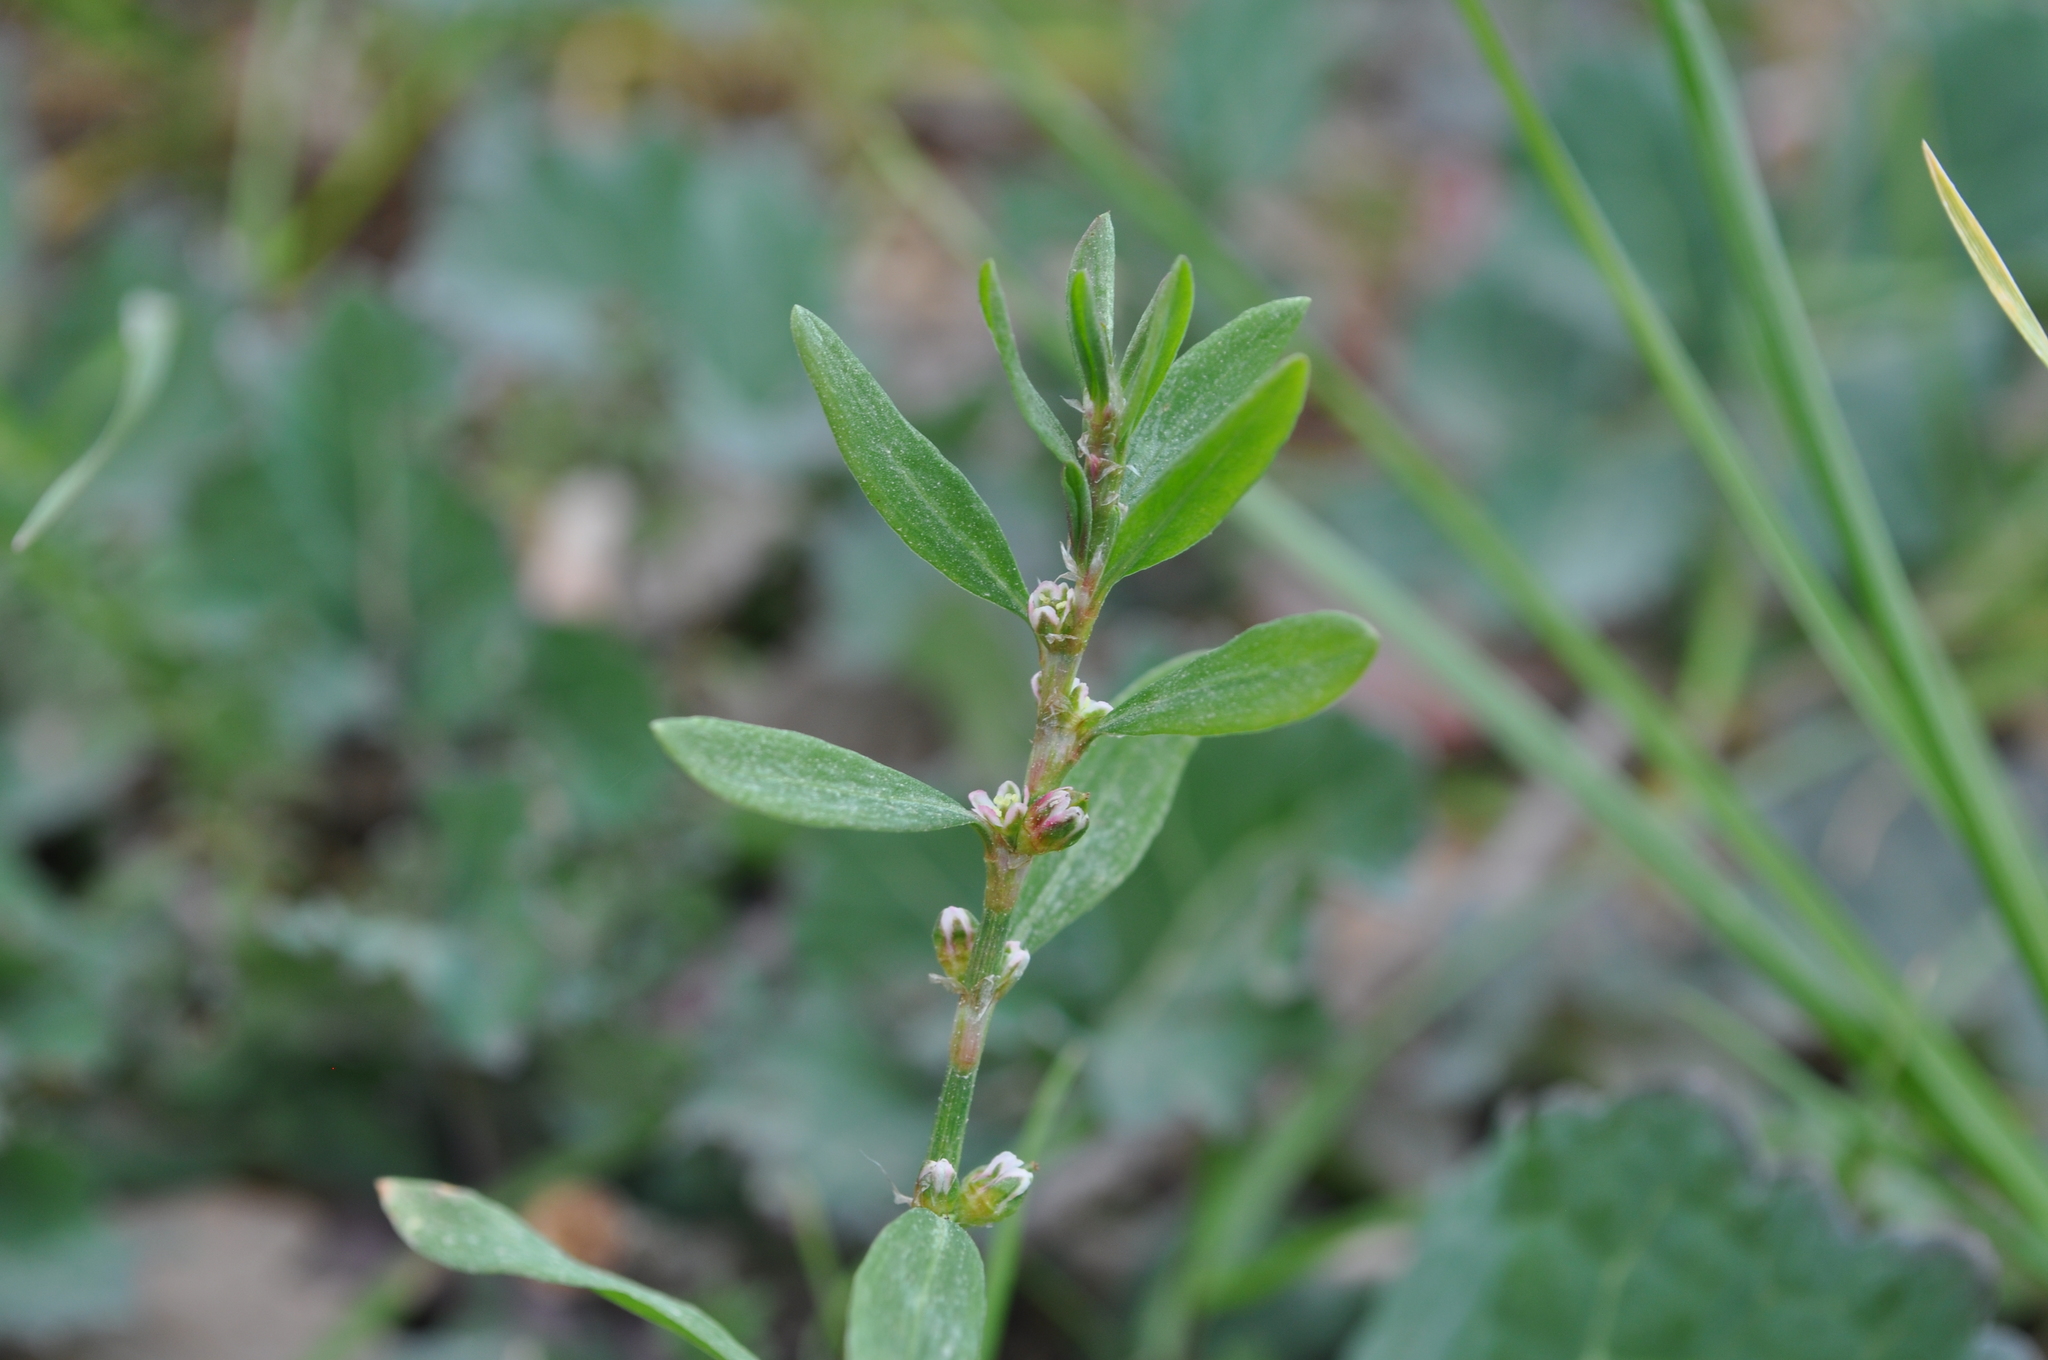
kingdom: Plantae
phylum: Tracheophyta
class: Magnoliopsida
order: Caryophyllales
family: Polygonaceae
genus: Polygonum
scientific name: Polygonum aviculare
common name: Prostrate knotweed
